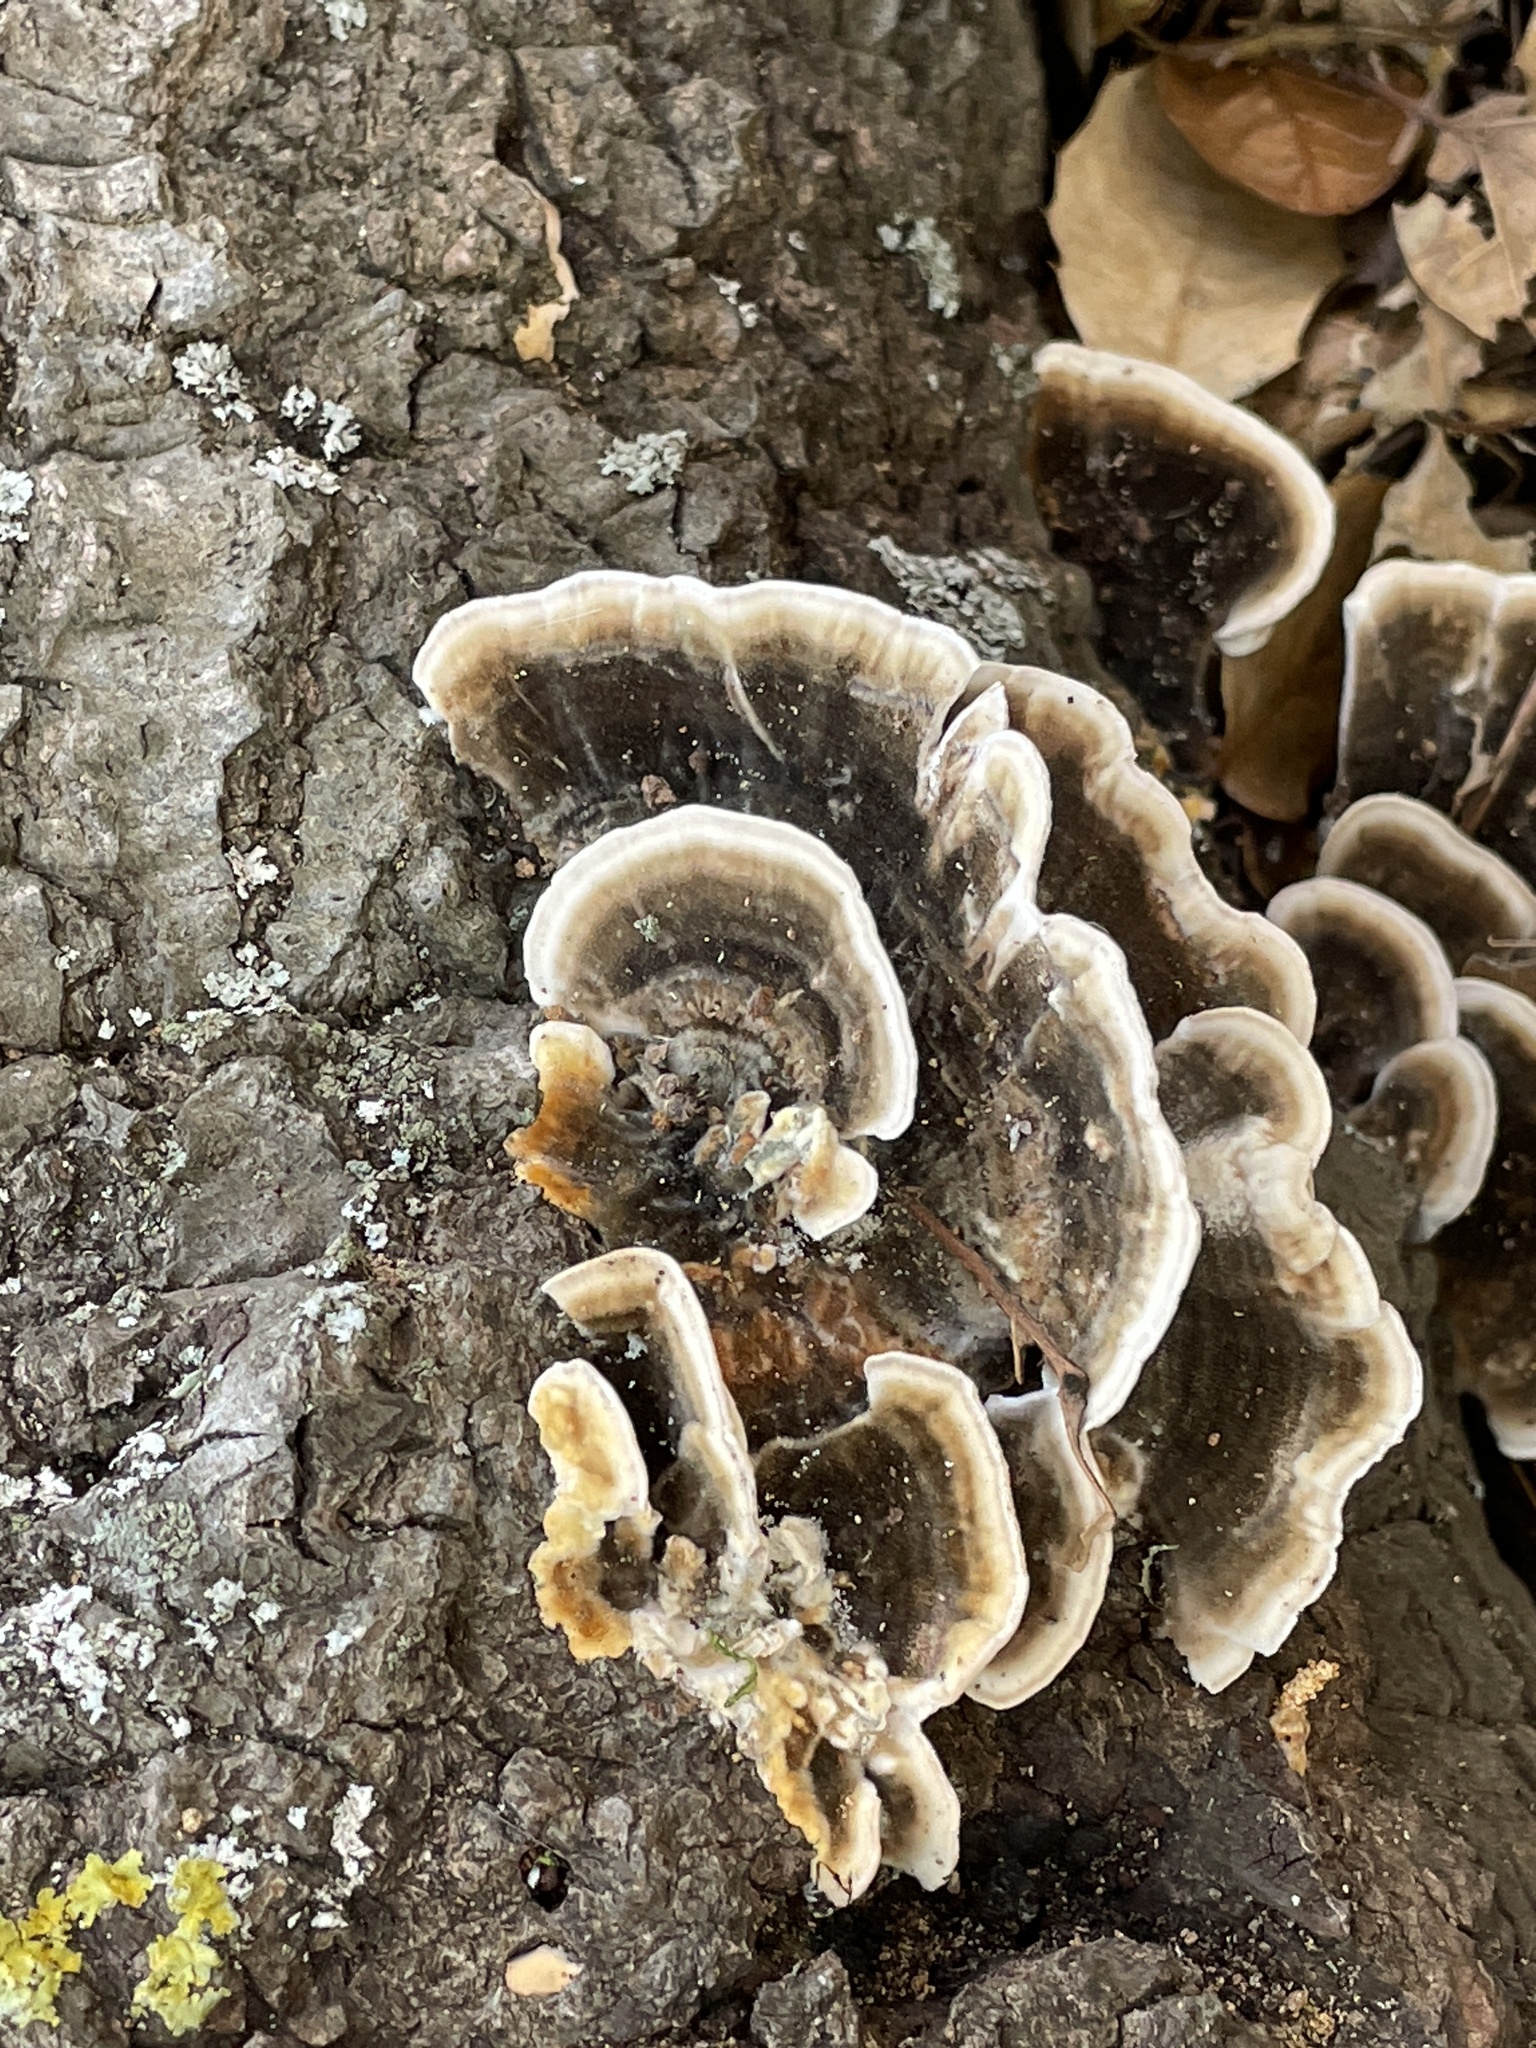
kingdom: Fungi
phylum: Basidiomycota
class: Agaricomycetes
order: Polyporales
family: Polyporaceae
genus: Trametes
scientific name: Trametes versicolor
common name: Turkeytail
